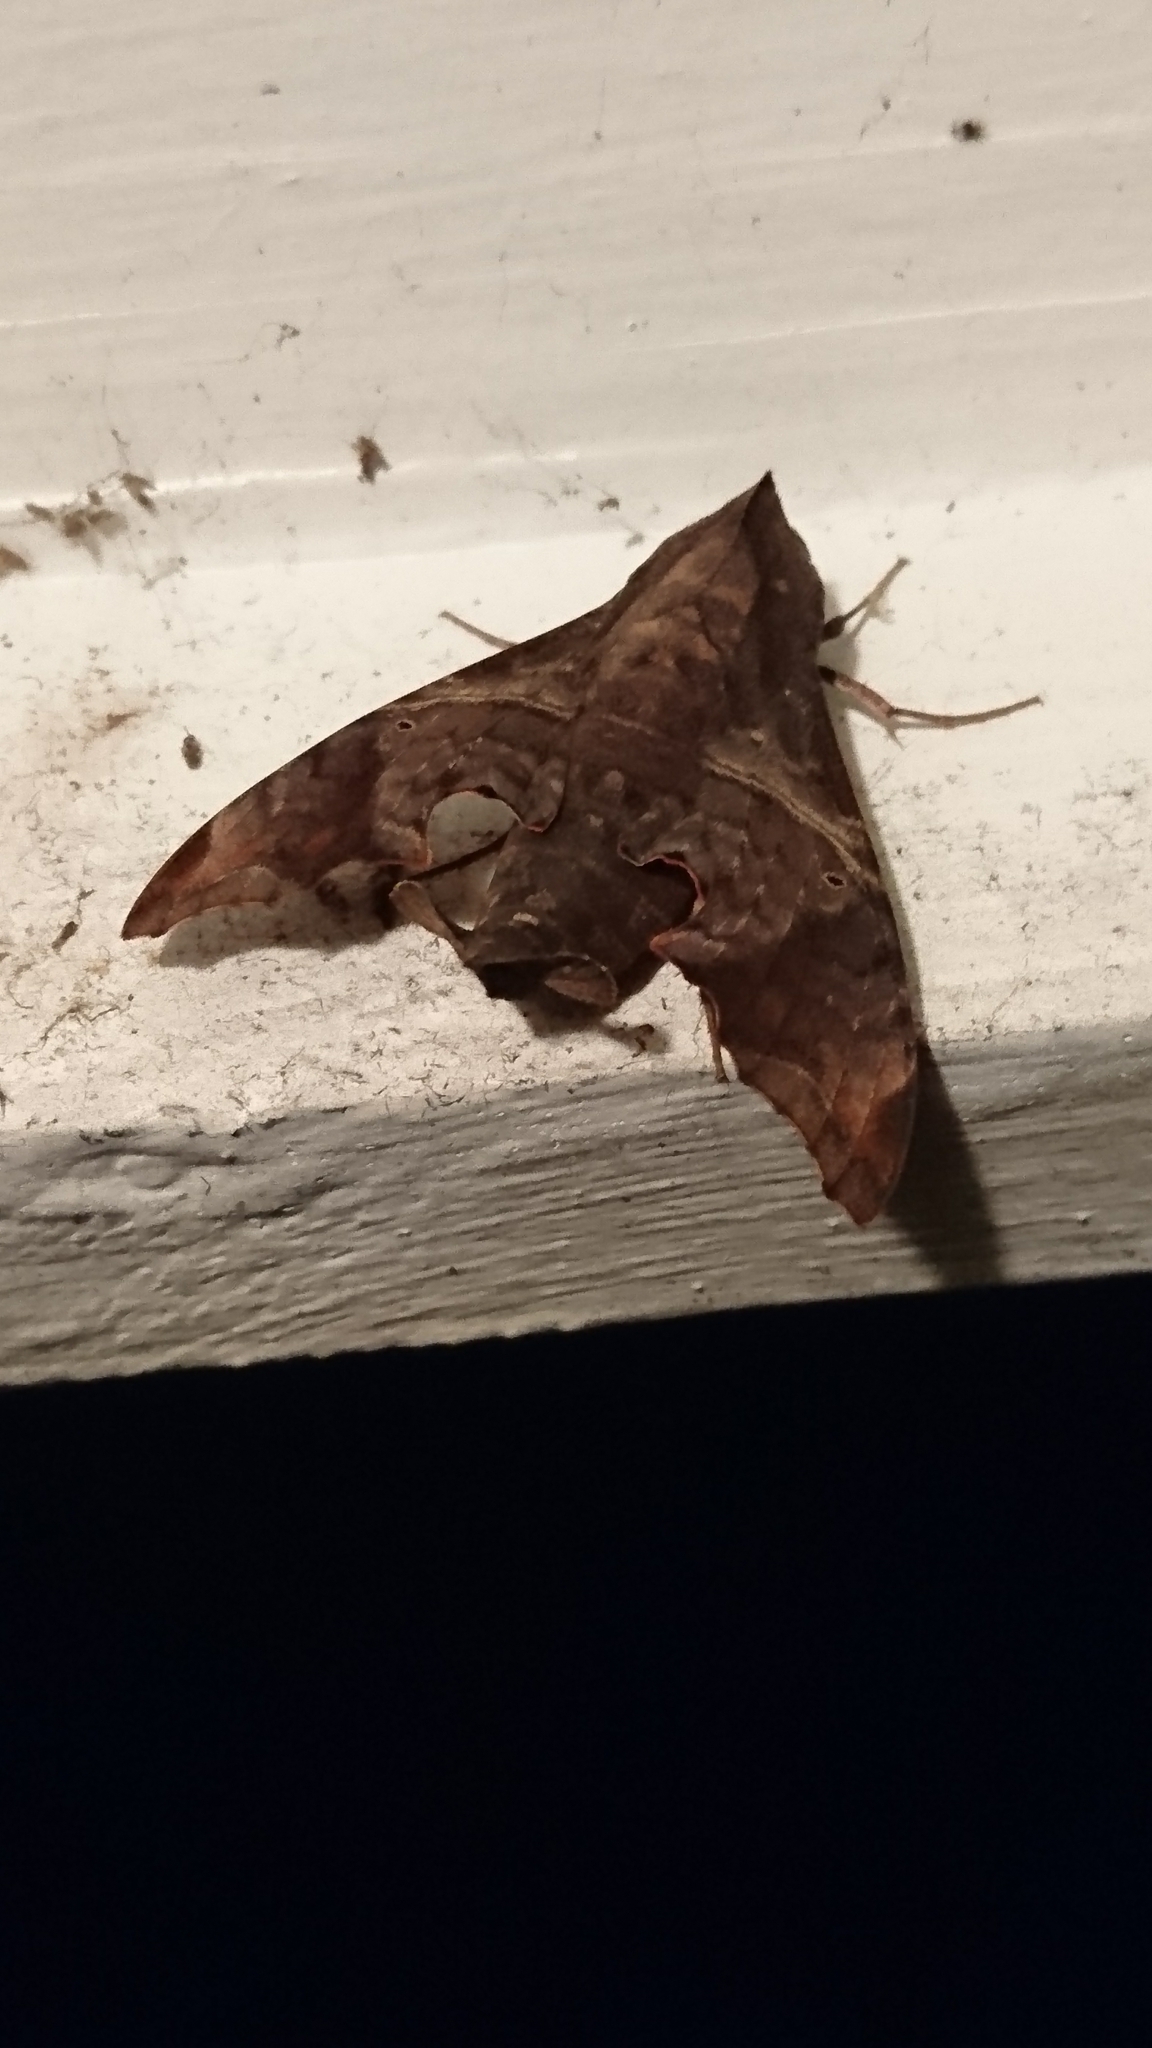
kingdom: Animalia
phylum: Arthropoda
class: Insecta
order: Lepidoptera
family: Sphingidae
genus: Enyo
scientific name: Enyo lugubris
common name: Mournful sphinx
